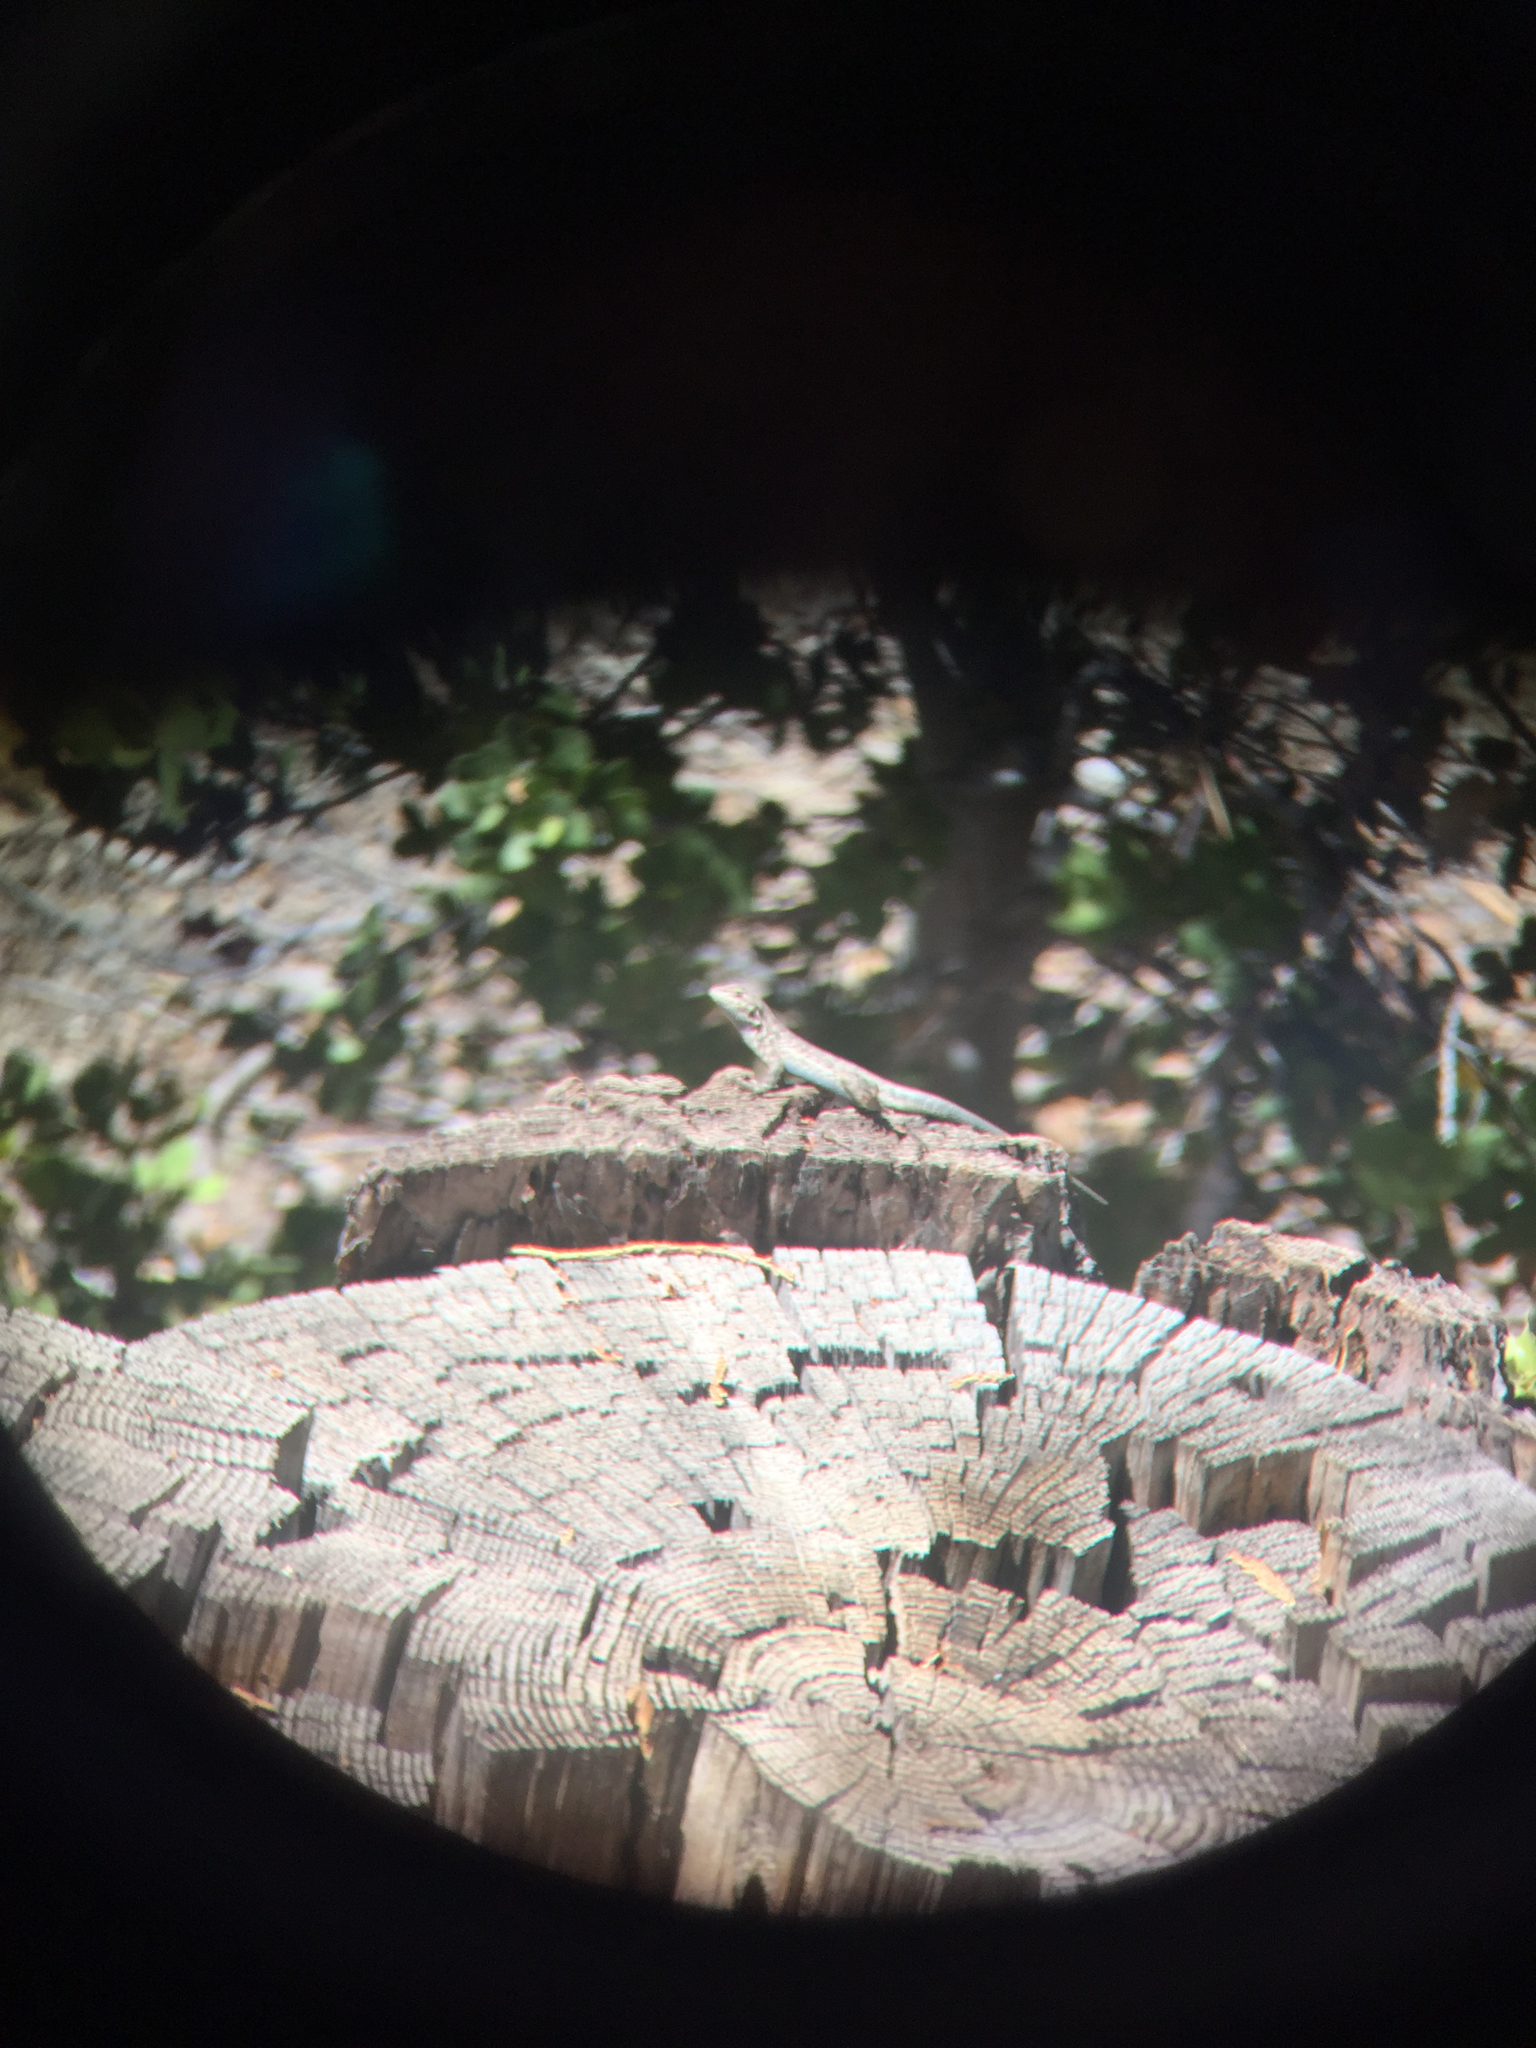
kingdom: Animalia
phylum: Chordata
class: Squamata
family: Phrynosomatidae
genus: Sceloporus
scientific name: Sceloporus graciosus
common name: Sagebrush lizard
